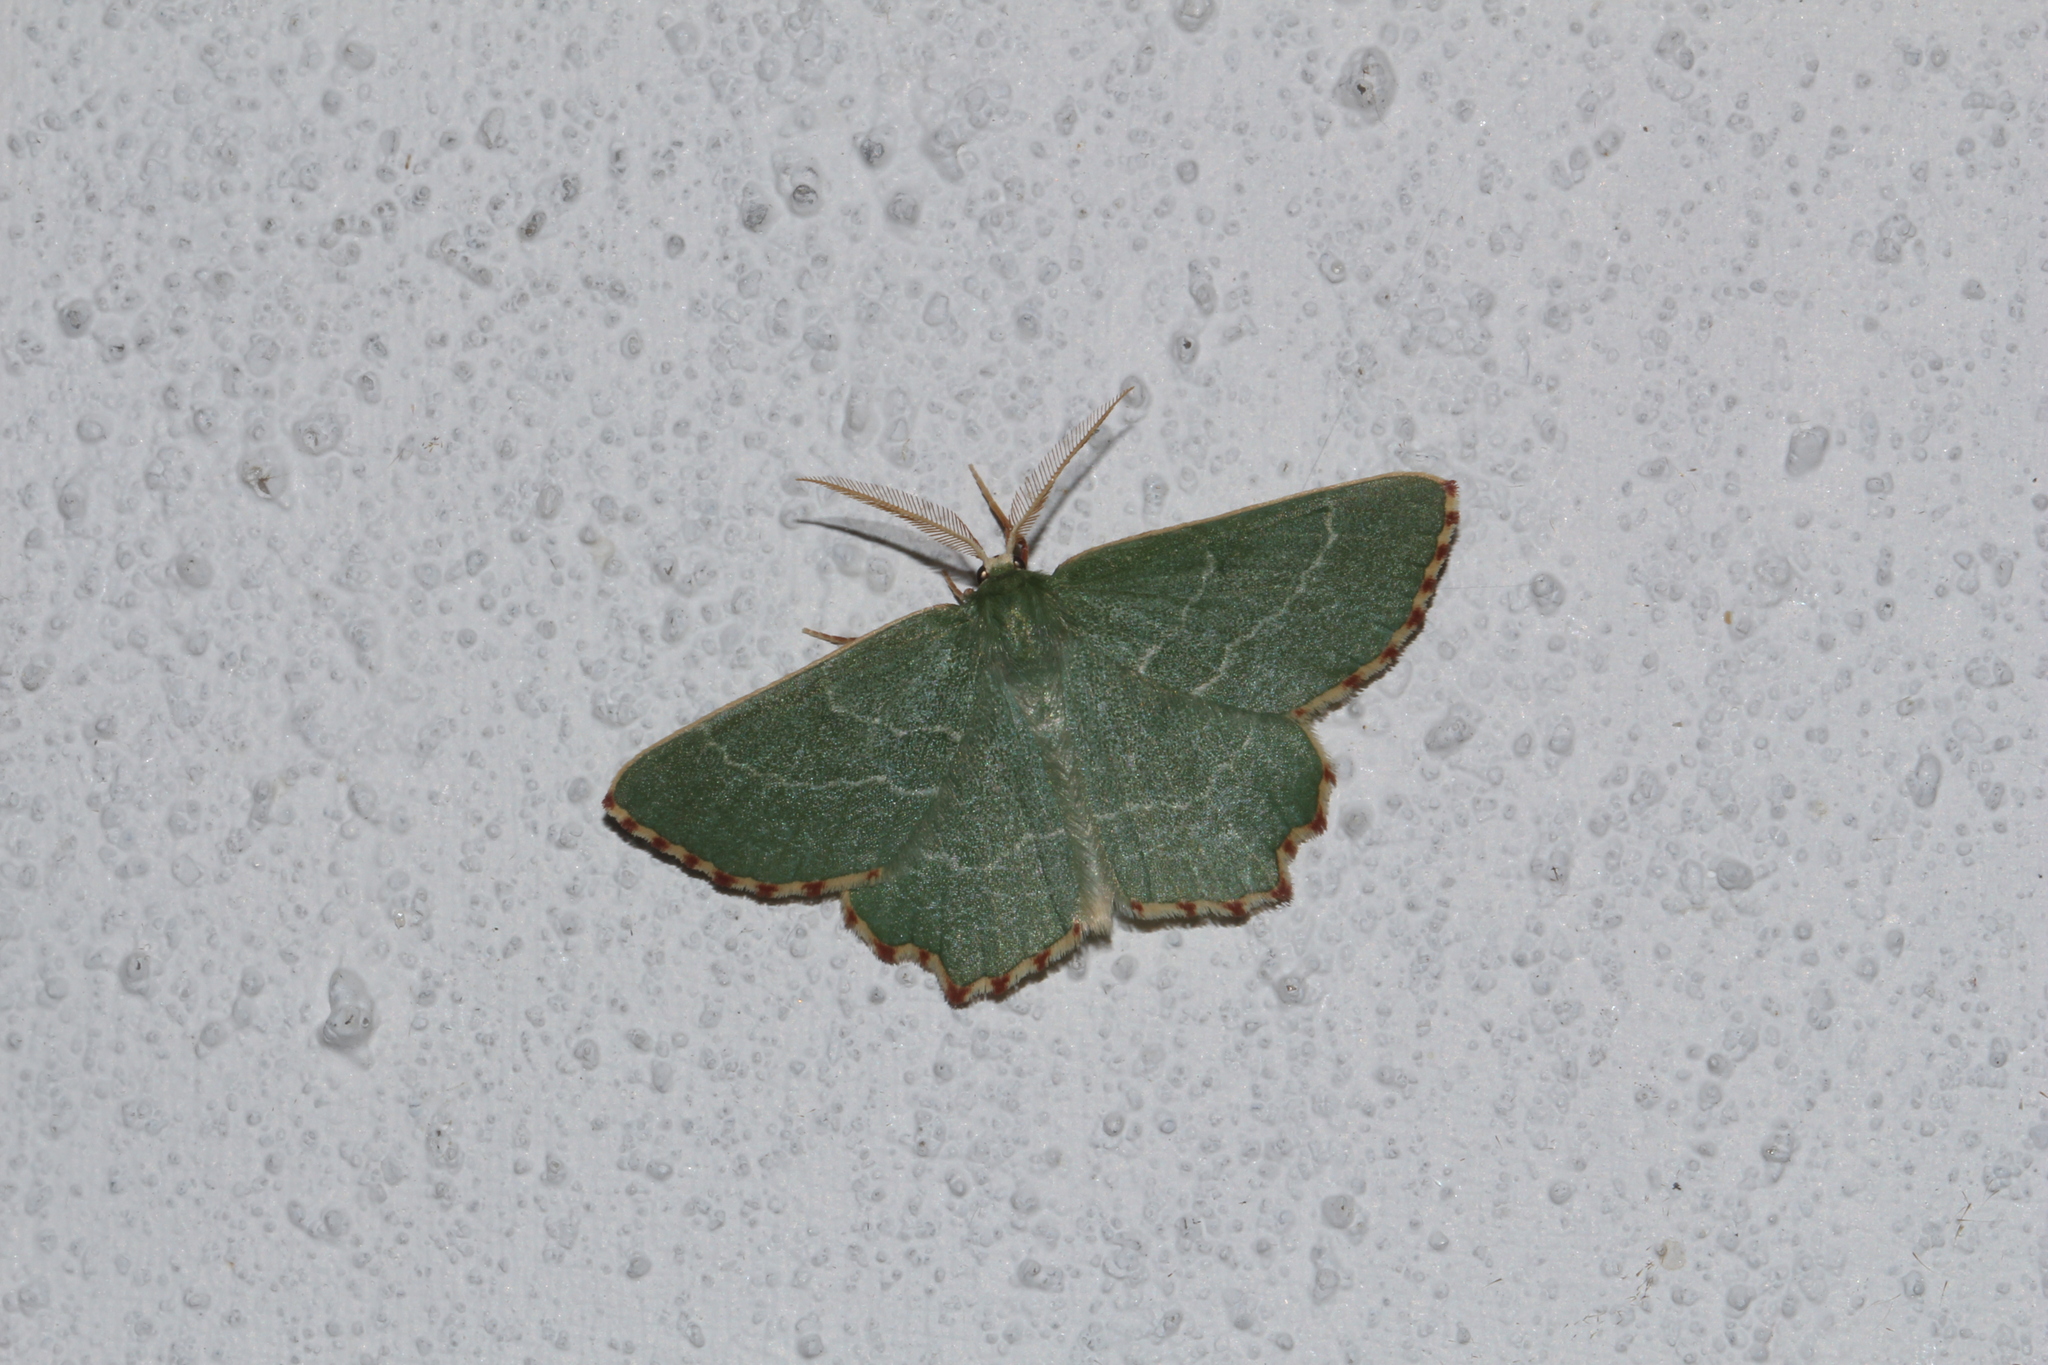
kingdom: Animalia
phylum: Arthropoda
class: Insecta
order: Lepidoptera
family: Geometridae
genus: Thalera
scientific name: Thalera fimbrialis
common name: Sussex emerald
